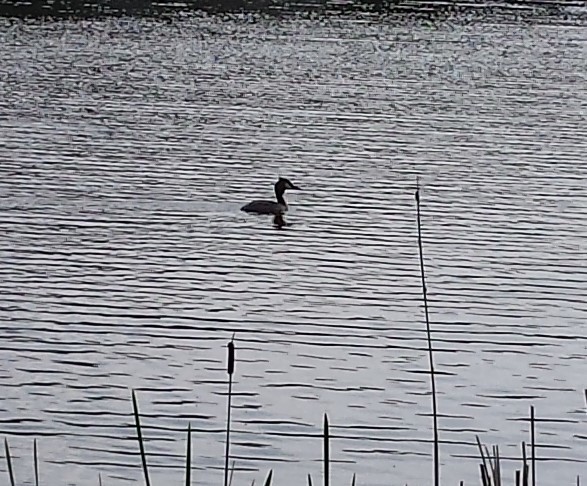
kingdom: Animalia
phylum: Chordata
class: Aves
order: Podicipediformes
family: Podicipedidae
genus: Podiceps
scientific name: Podiceps cristatus
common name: Great crested grebe
